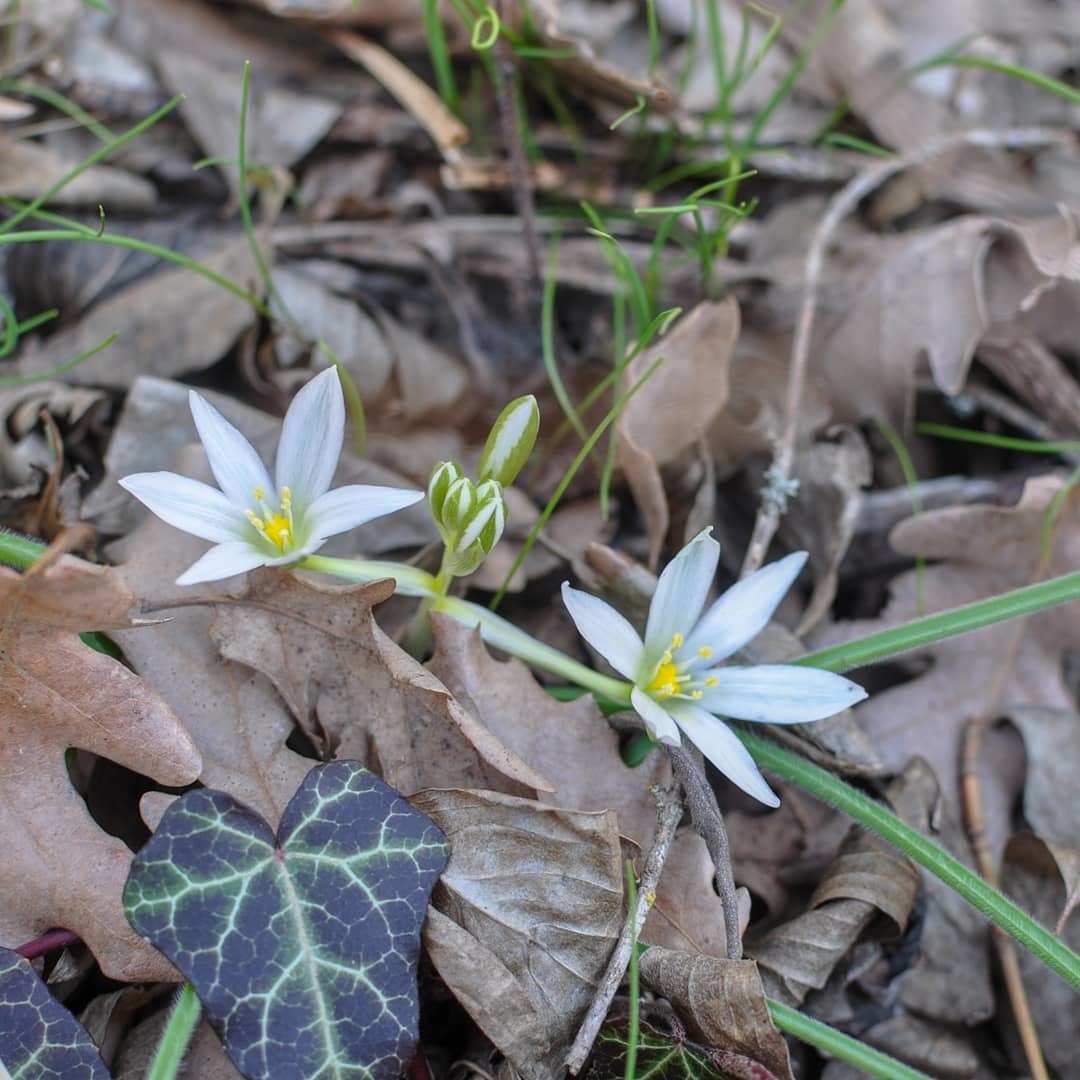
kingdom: Plantae
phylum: Tracheophyta
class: Liliopsida
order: Asparagales
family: Asparagaceae
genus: Ornithogalum
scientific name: Ornithogalum fimbriatum
